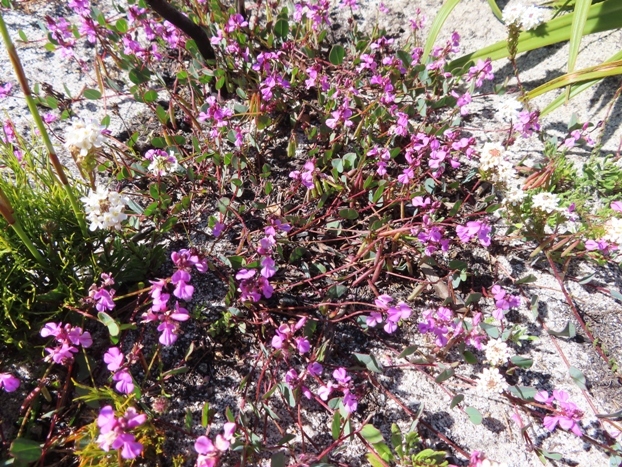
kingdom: Plantae
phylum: Tracheophyta
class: Magnoliopsida
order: Fabales
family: Fabaceae
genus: Indigofera
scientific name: Indigofera ovata
